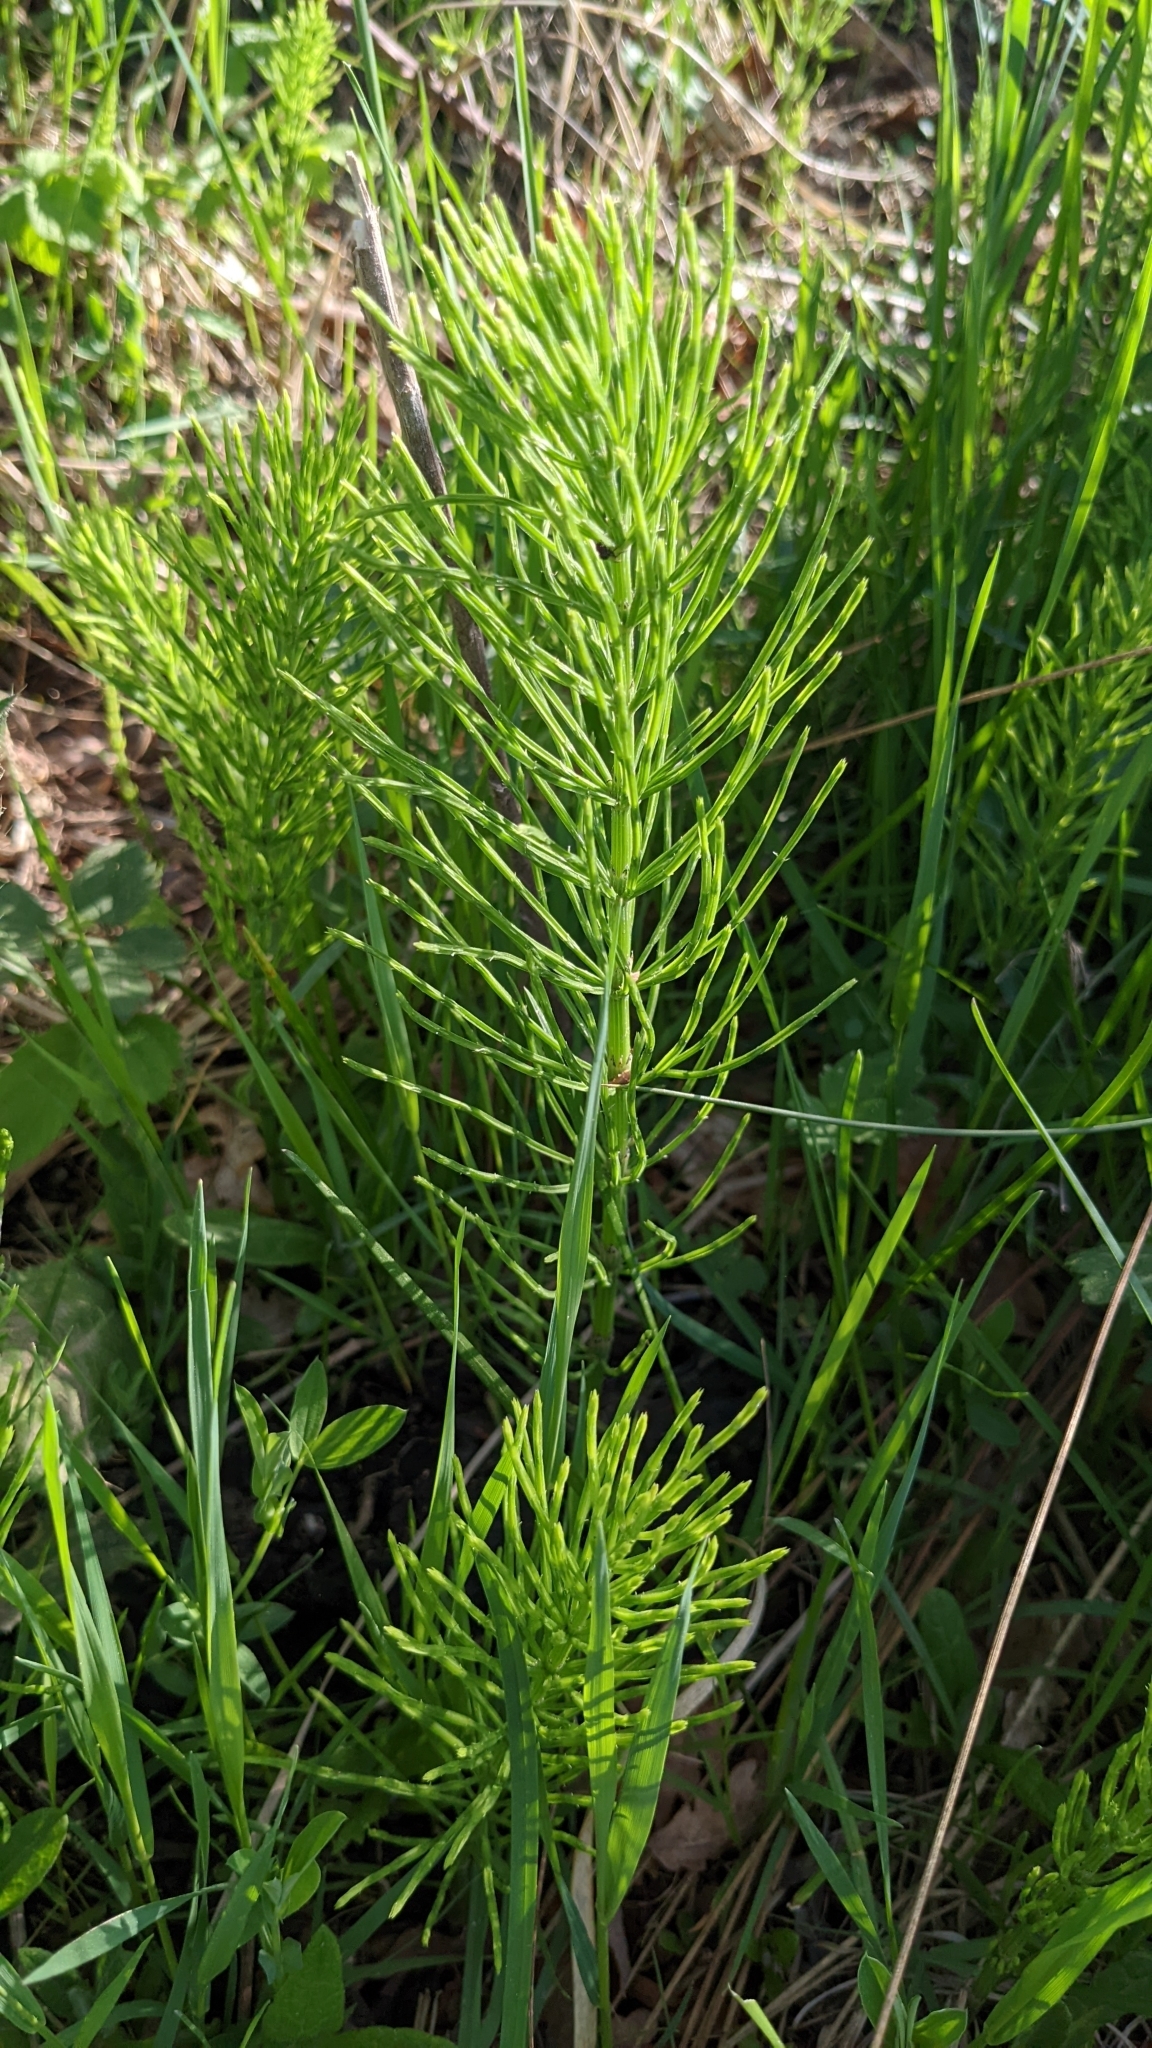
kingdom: Plantae
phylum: Tracheophyta
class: Polypodiopsida
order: Equisetales
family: Equisetaceae
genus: Equisetum
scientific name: Equisetum arvense
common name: Field horsetail
